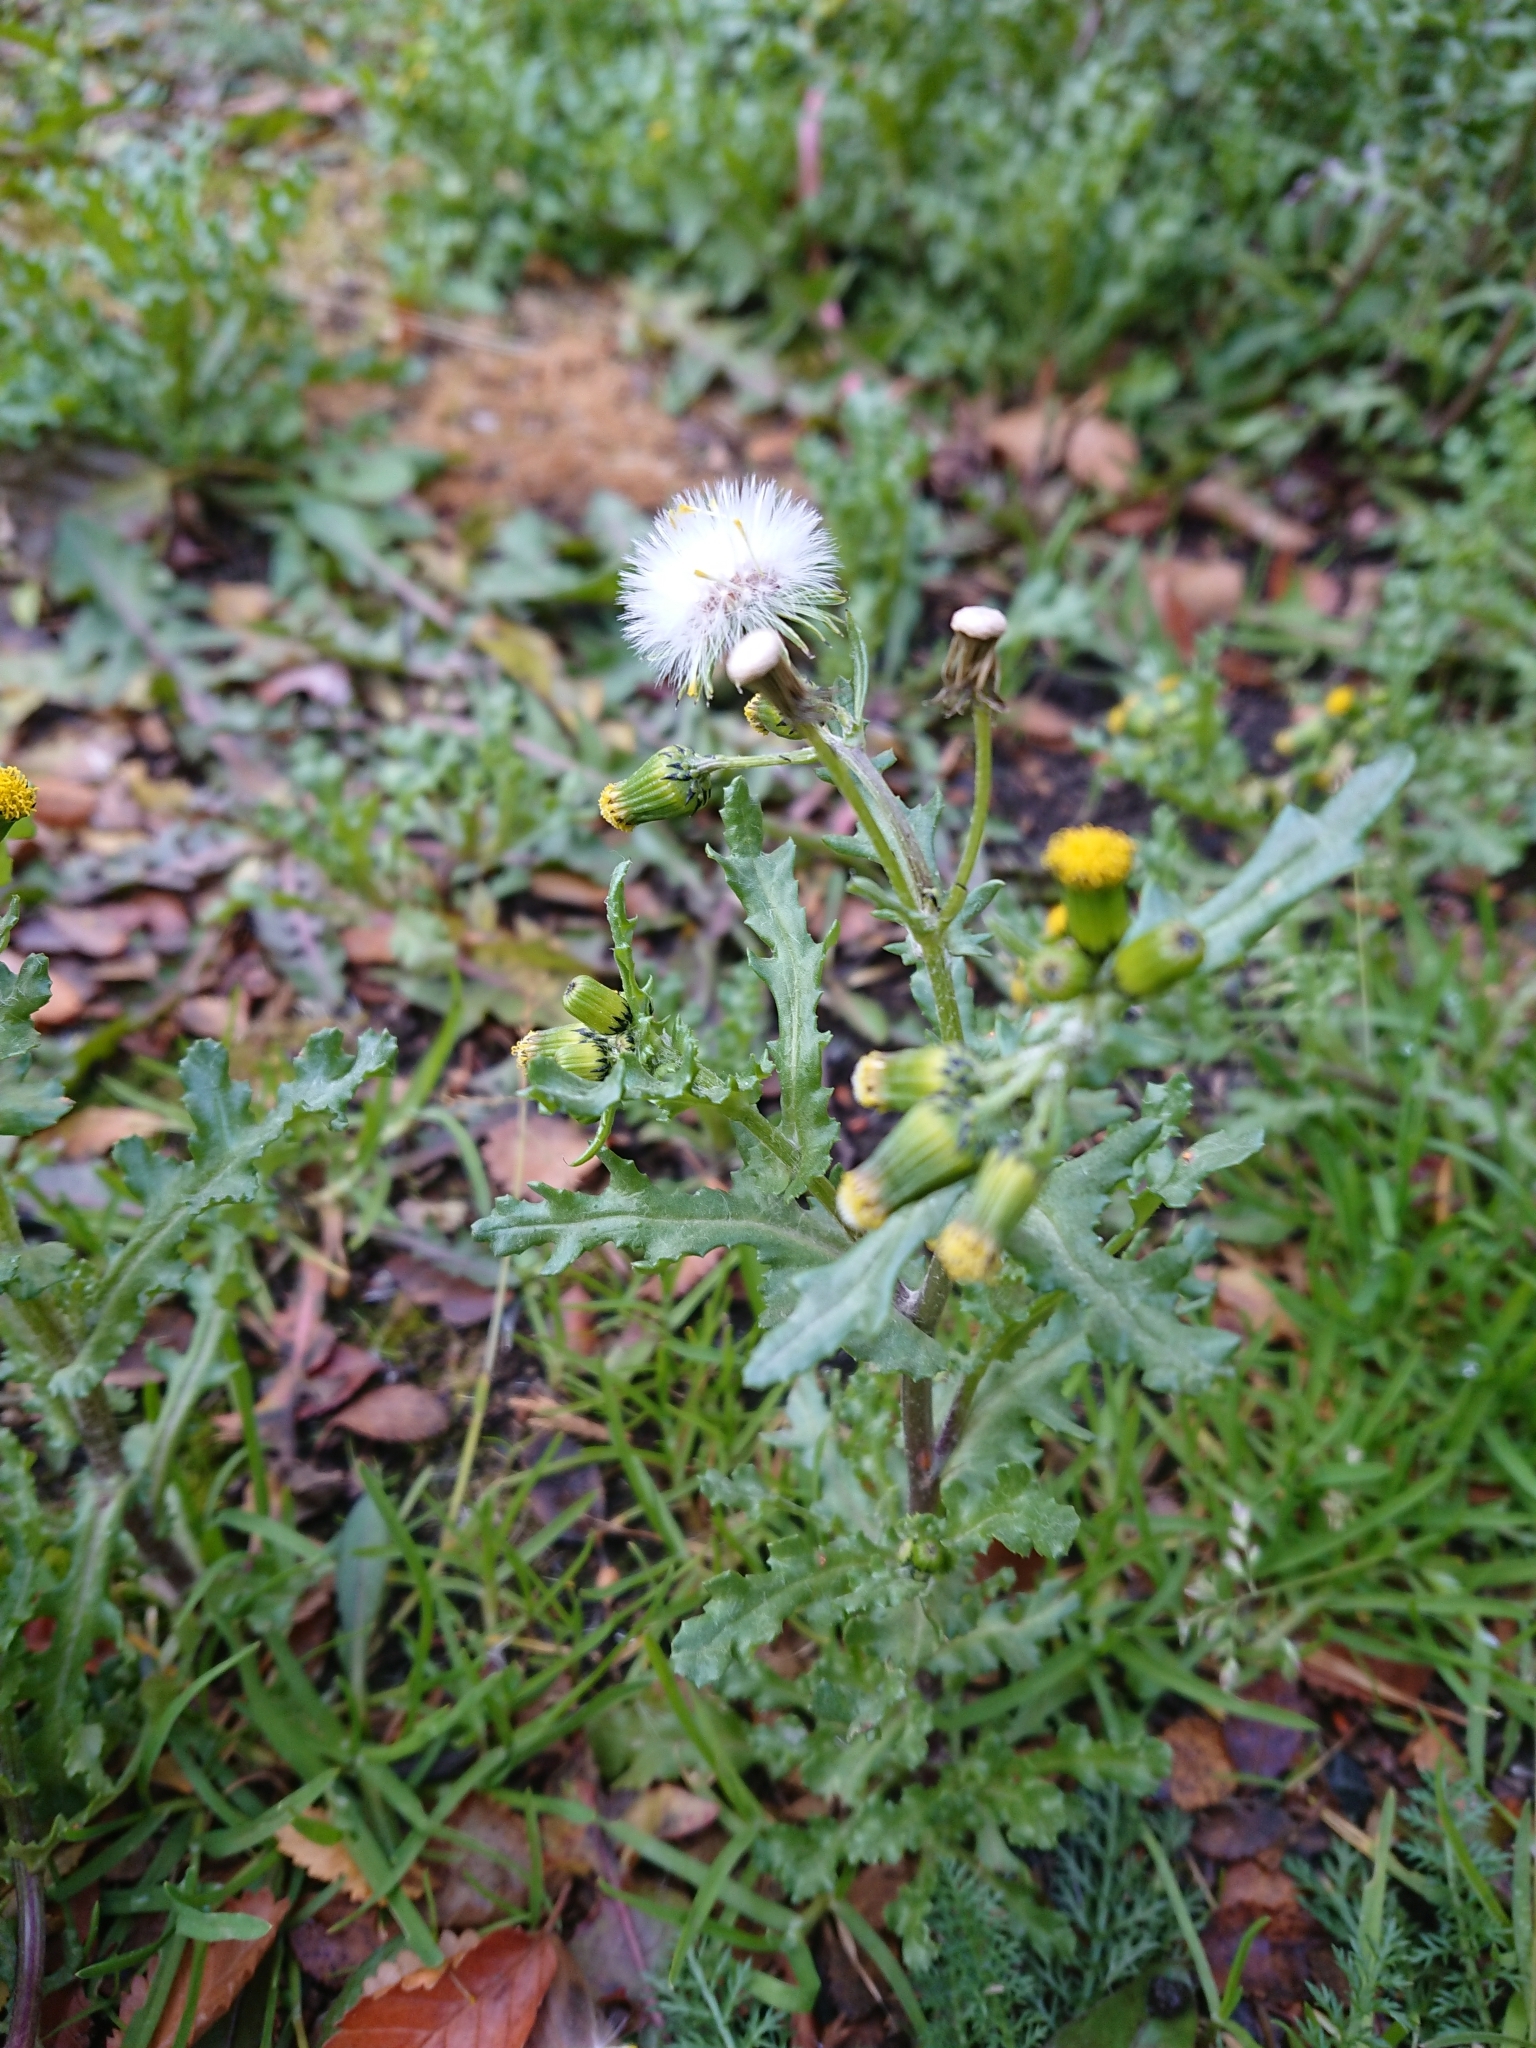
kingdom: Plantae
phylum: Tracheophyta
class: Magnoliopsida
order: Asterales
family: Asteraceae
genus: Senecio
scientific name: Senecio vulgaris
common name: Old-man-in-the-spring
